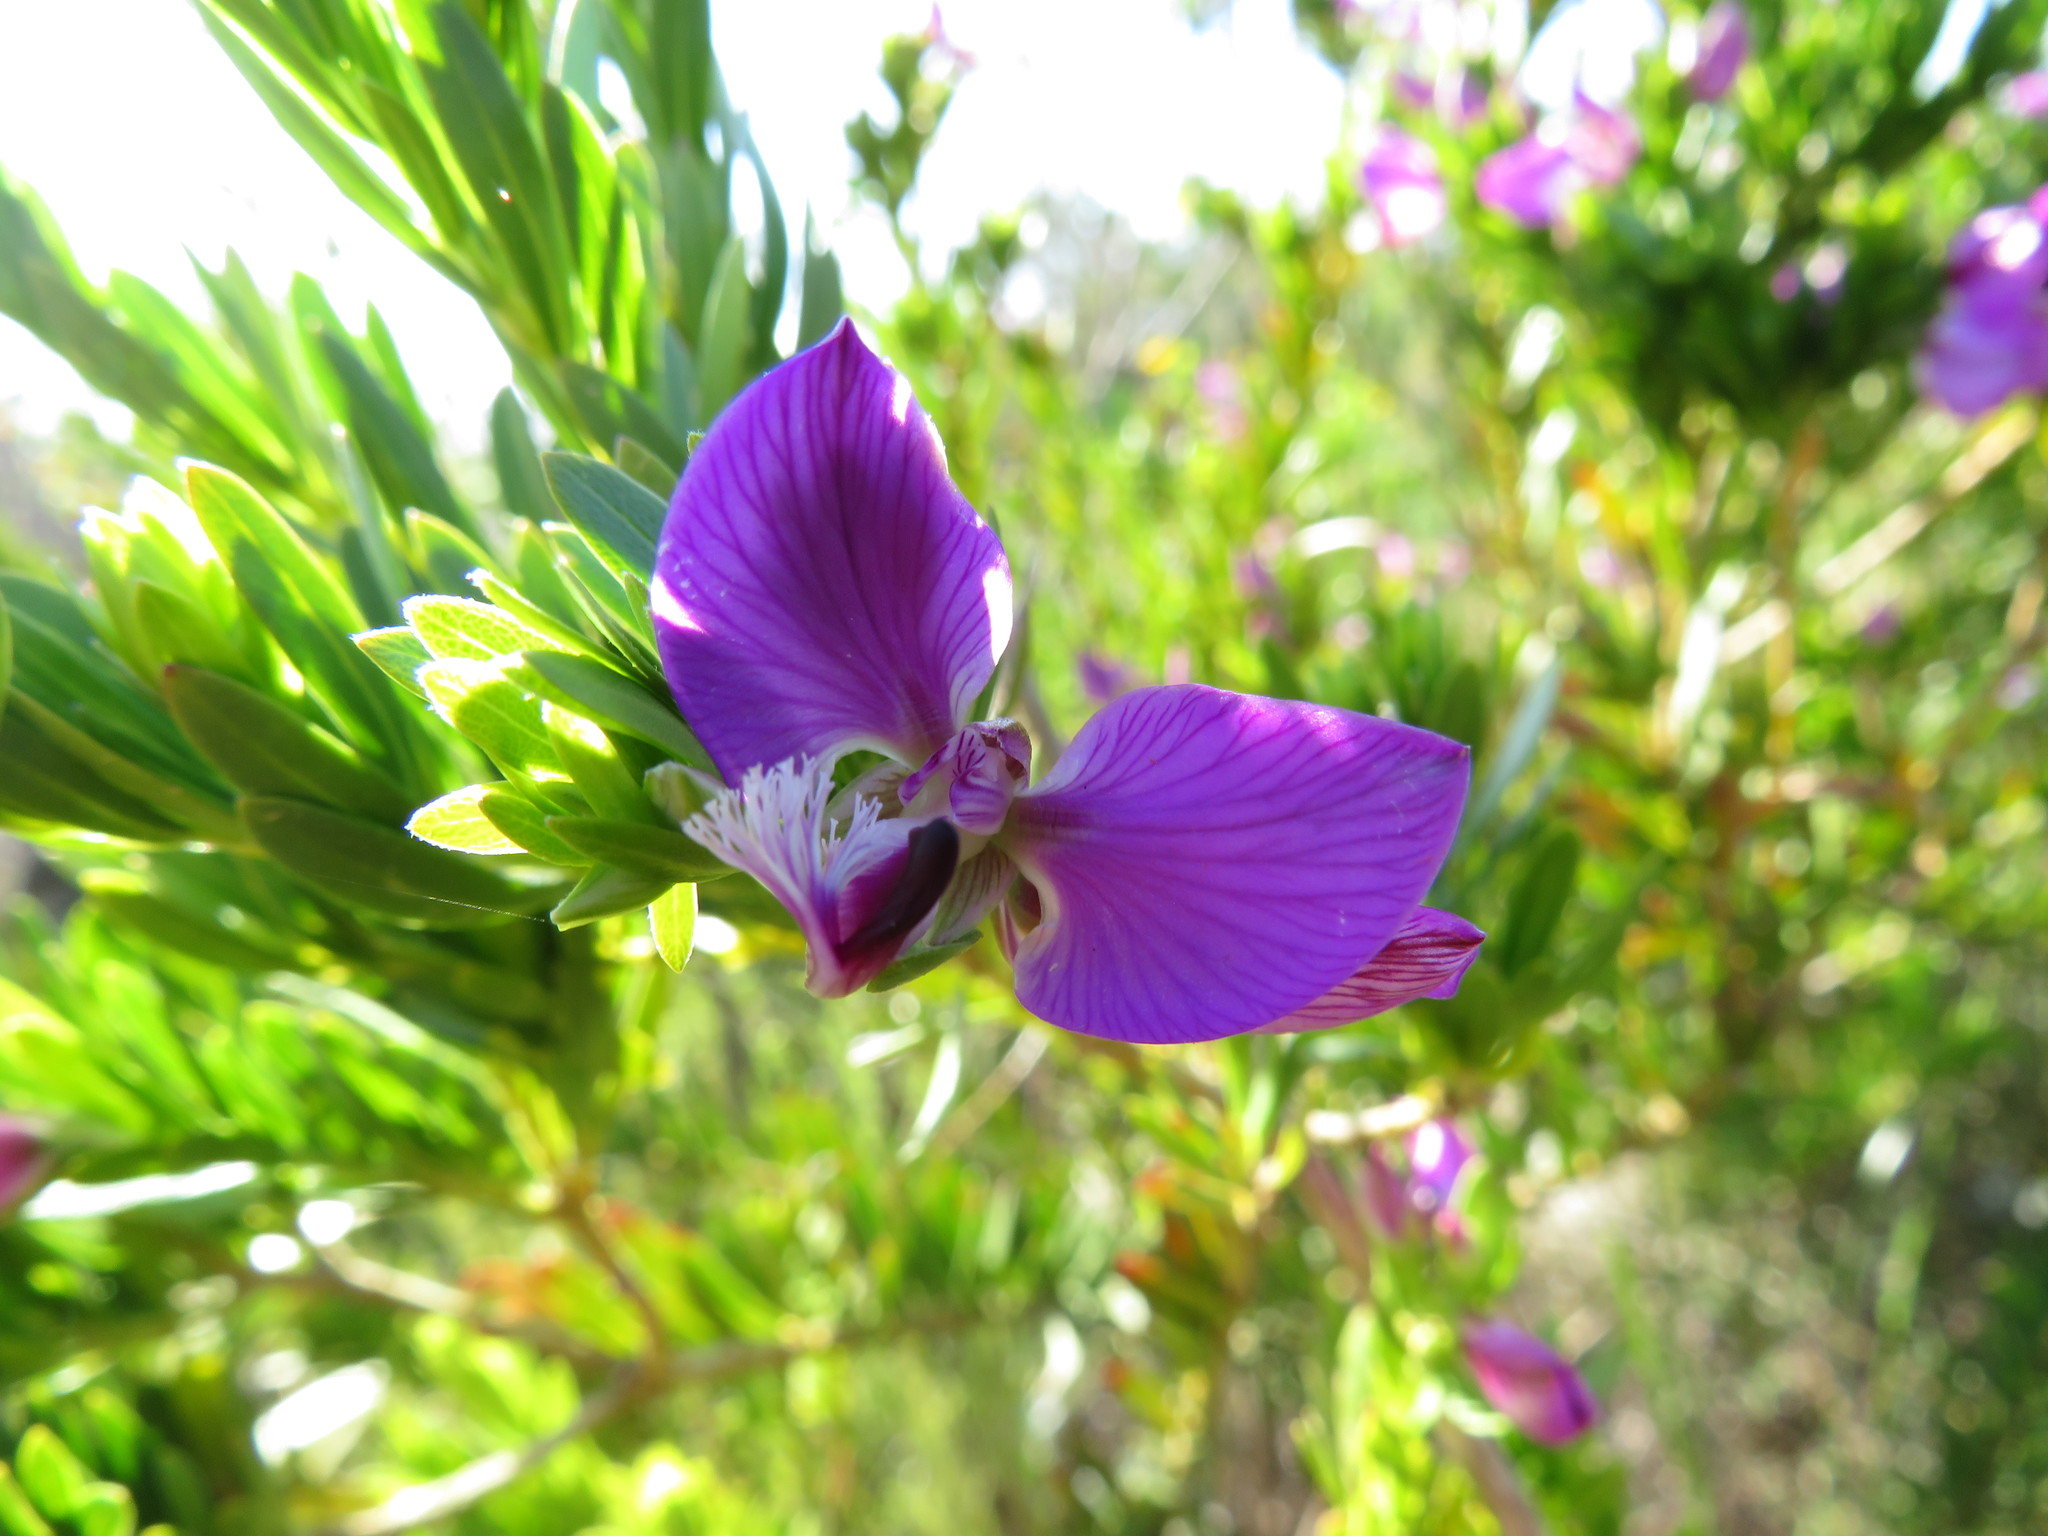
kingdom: Plantae
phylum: Tracheophyta
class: Magnoliopsida
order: Fabales
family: Polygalaceae
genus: Polygala
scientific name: Polygala myrtifolia
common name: Myrtle-leaf milkwort
